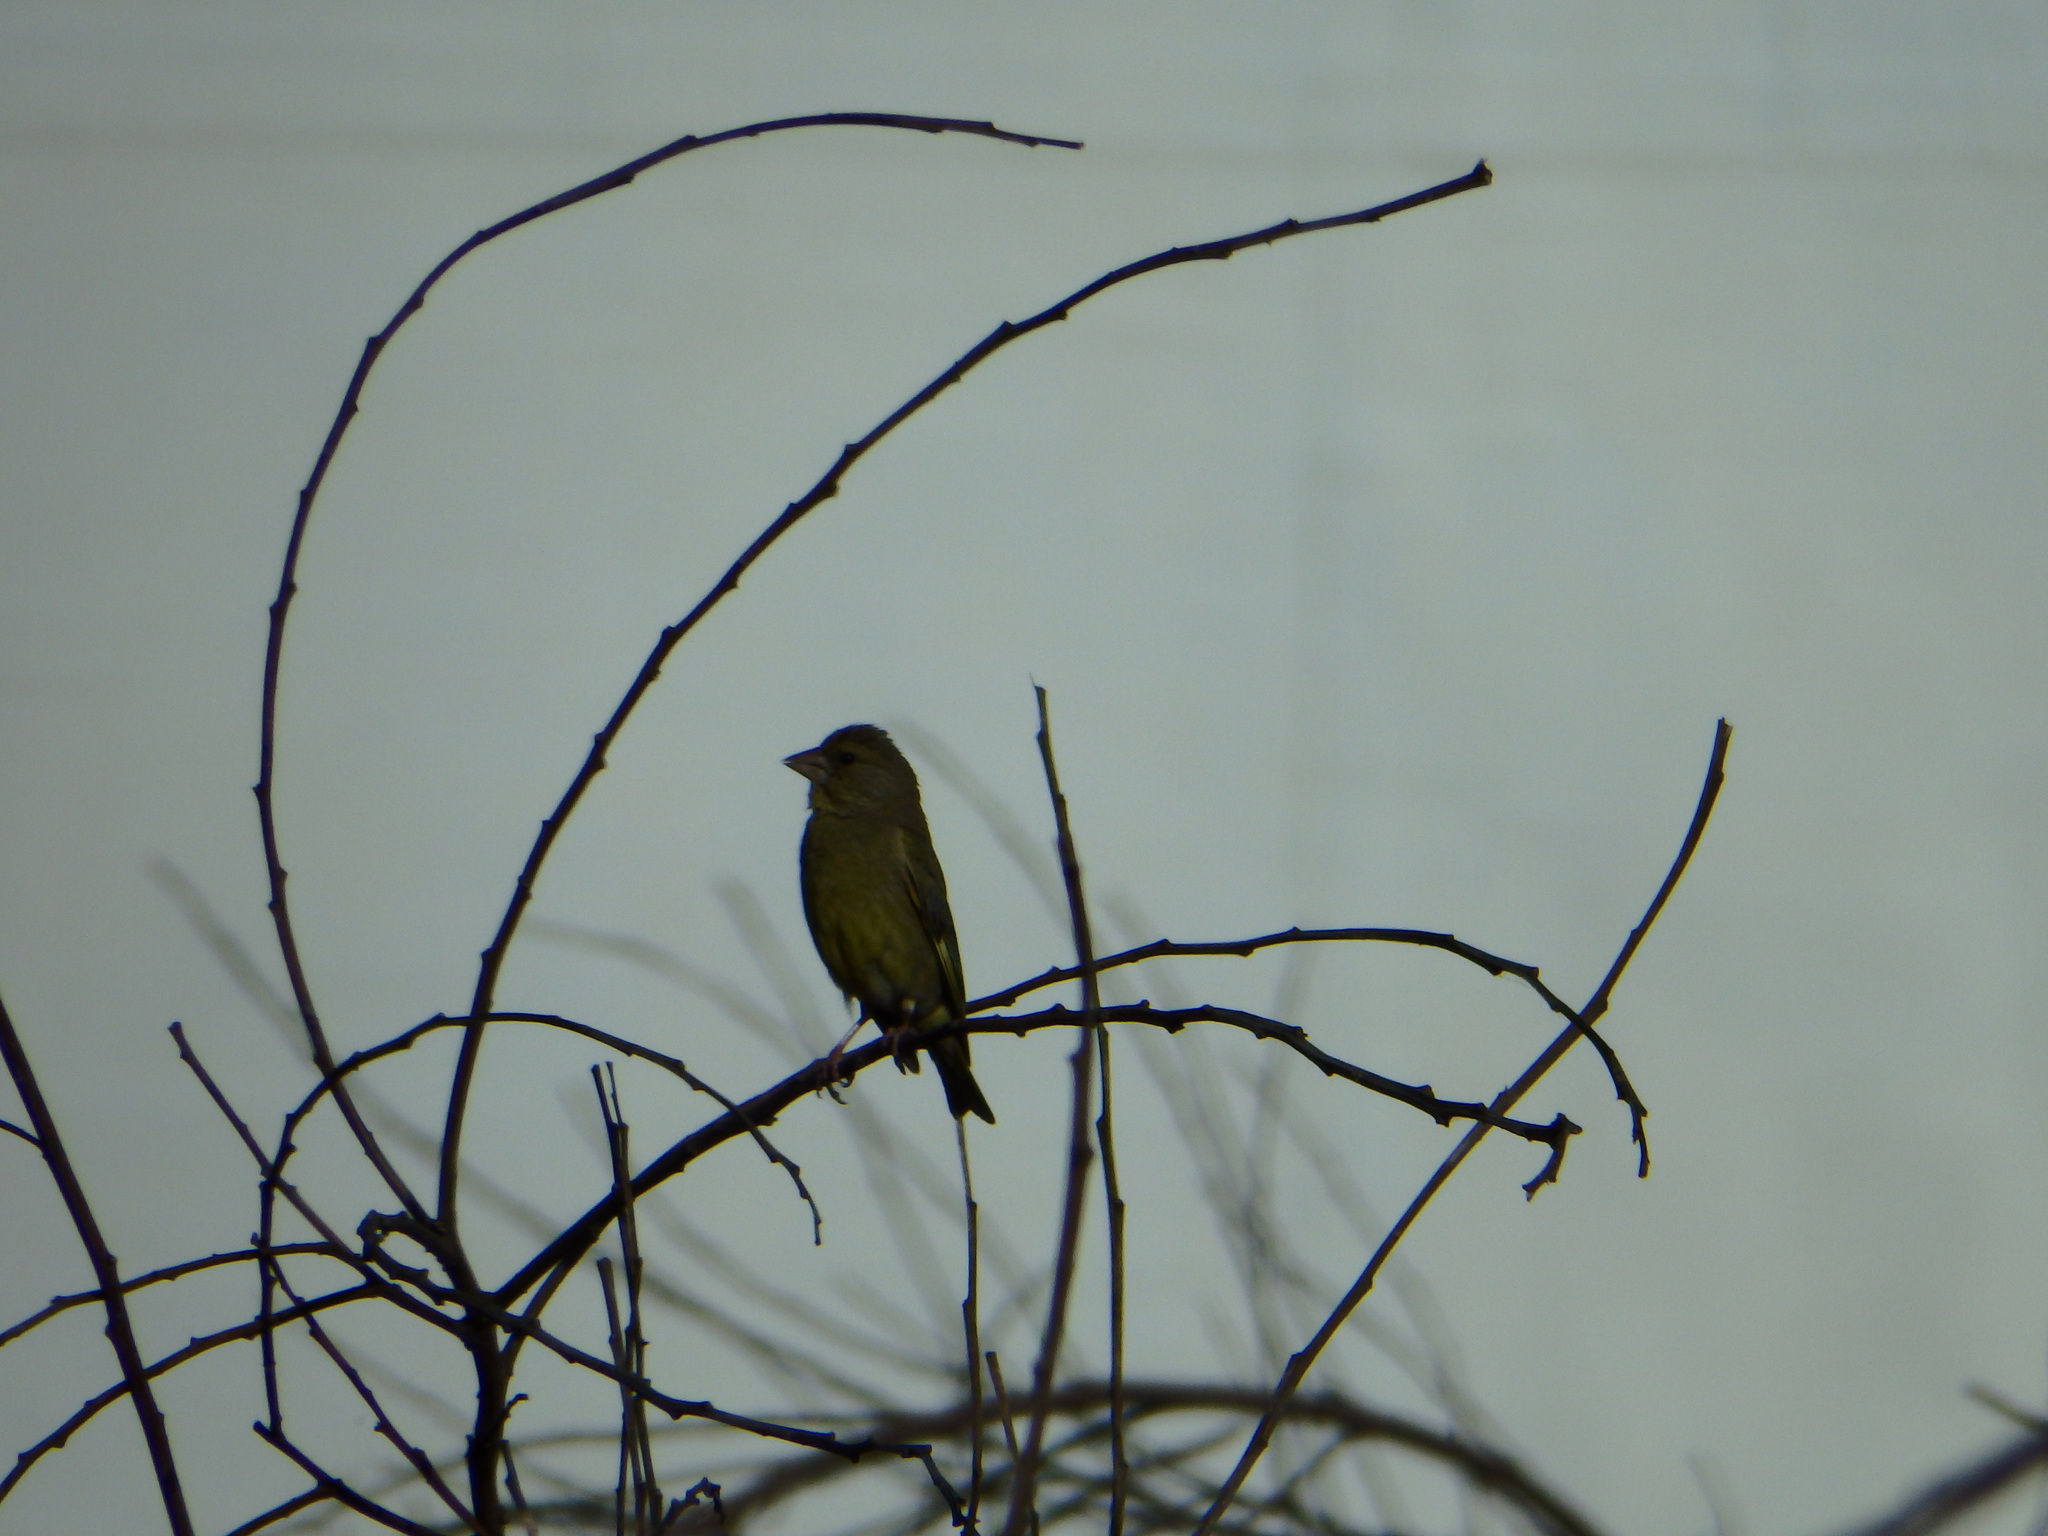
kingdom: Plantae
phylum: Tracheophyta
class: Liliopsida
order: Poales
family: Poaceae
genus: Chloris
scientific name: Chloris chloris
